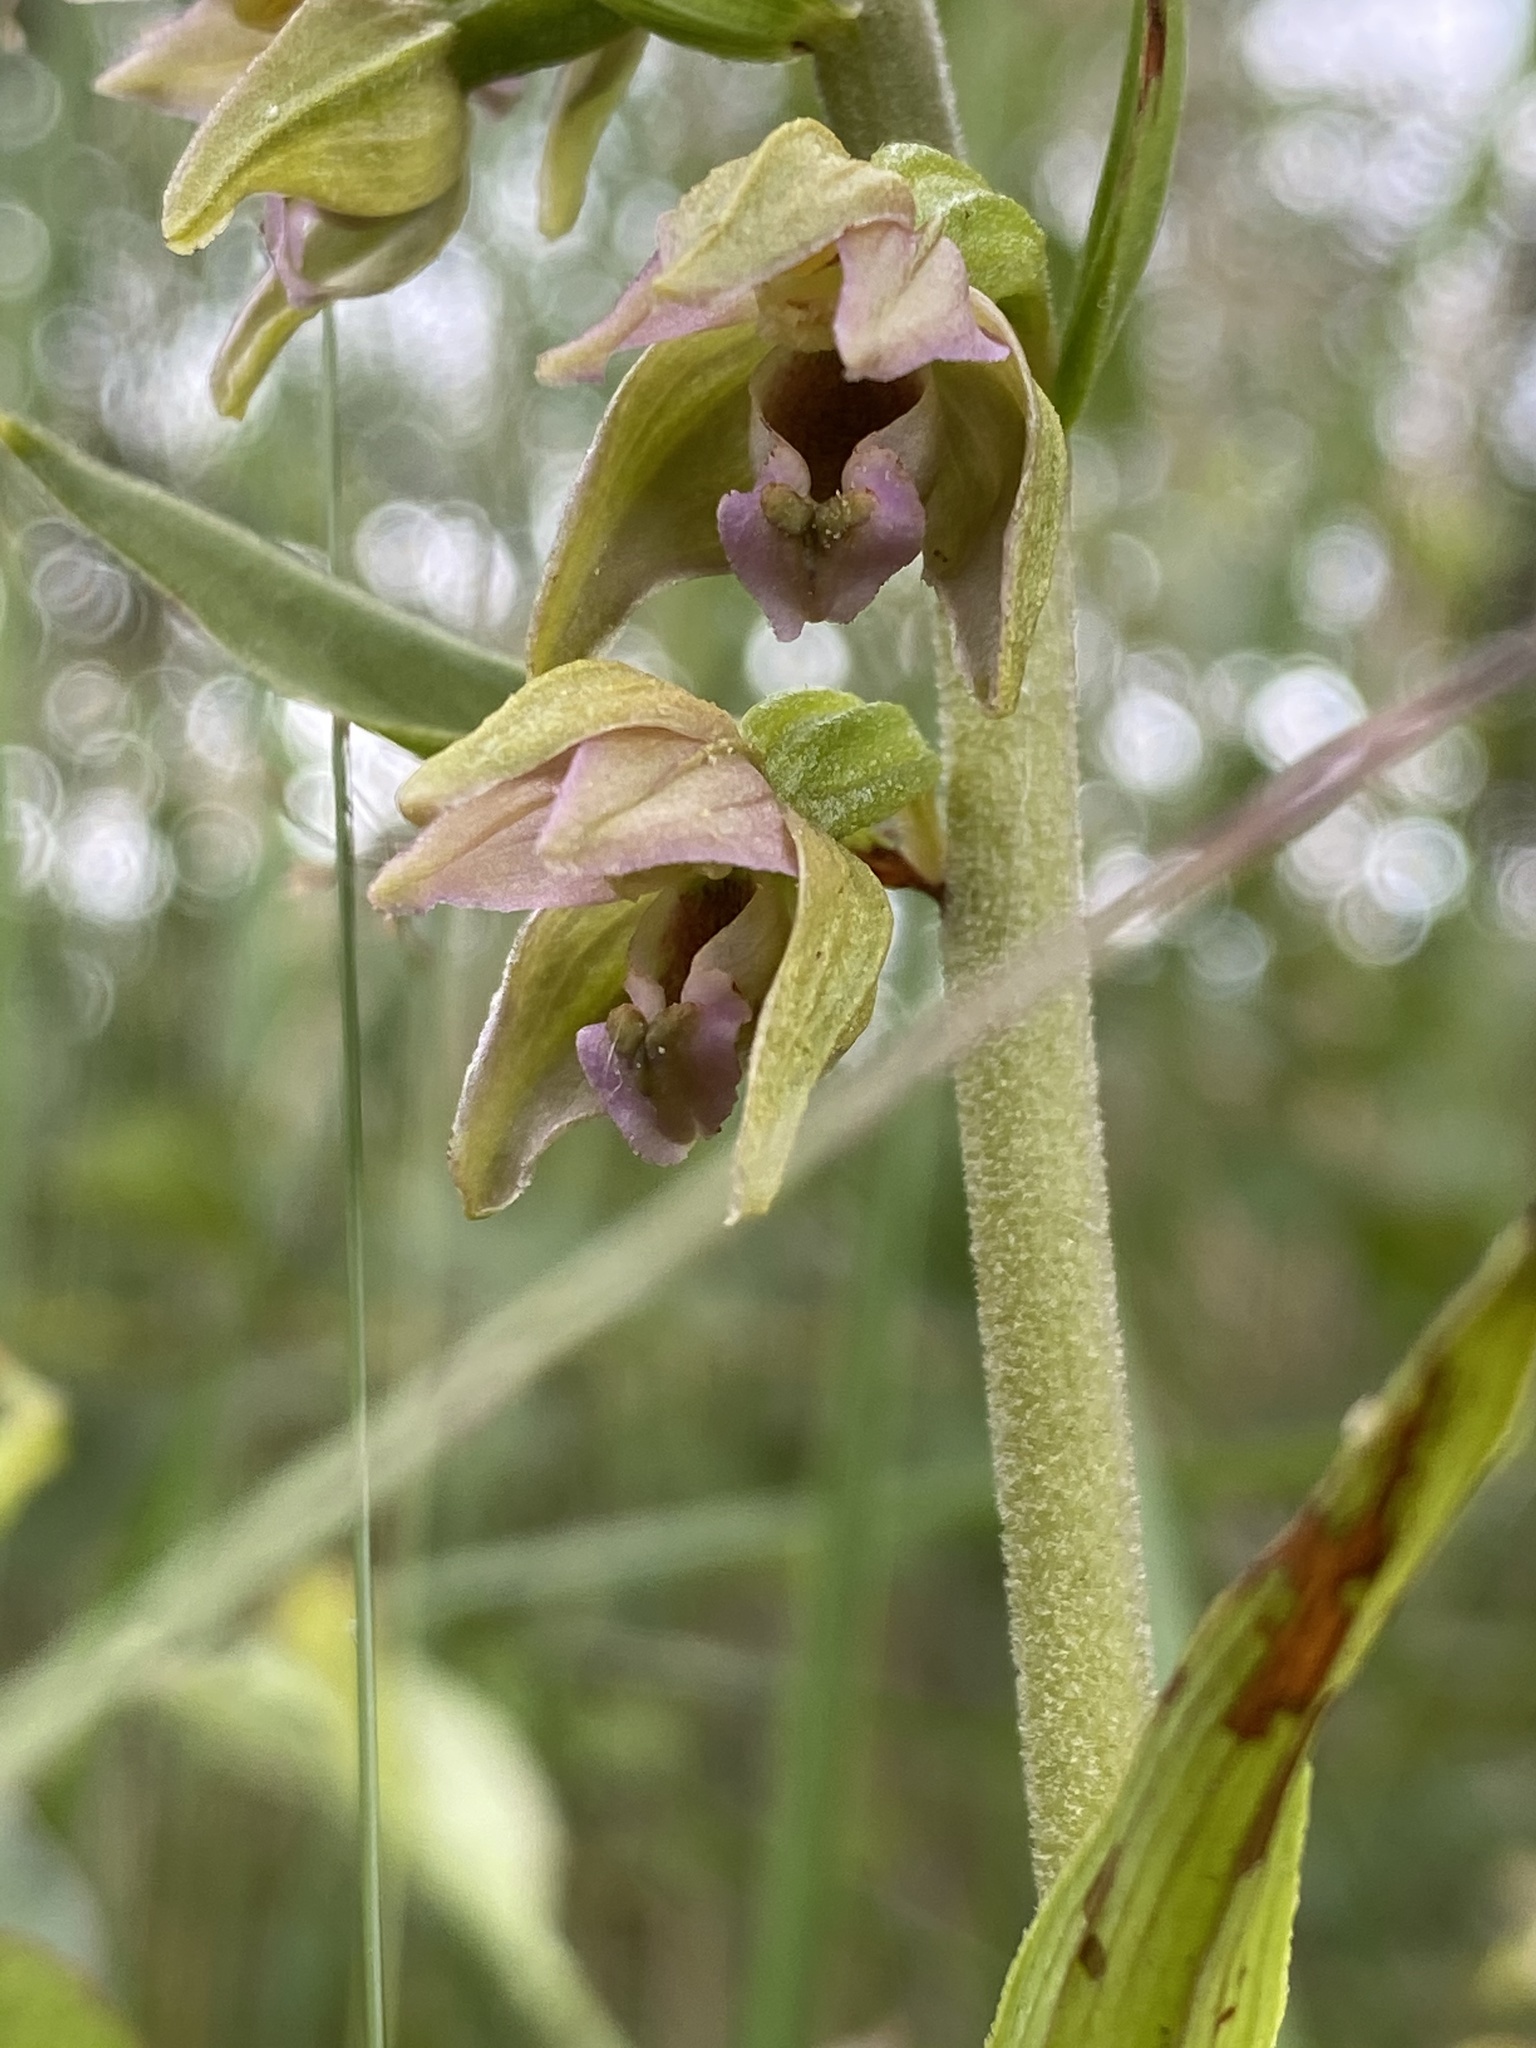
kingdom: Plantae
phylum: Tracheophyta
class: Liliopsida
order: Asparagales
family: Orchidaceae
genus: Epipactis
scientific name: Epipactis helleborine
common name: Broad-leaved helleborine
